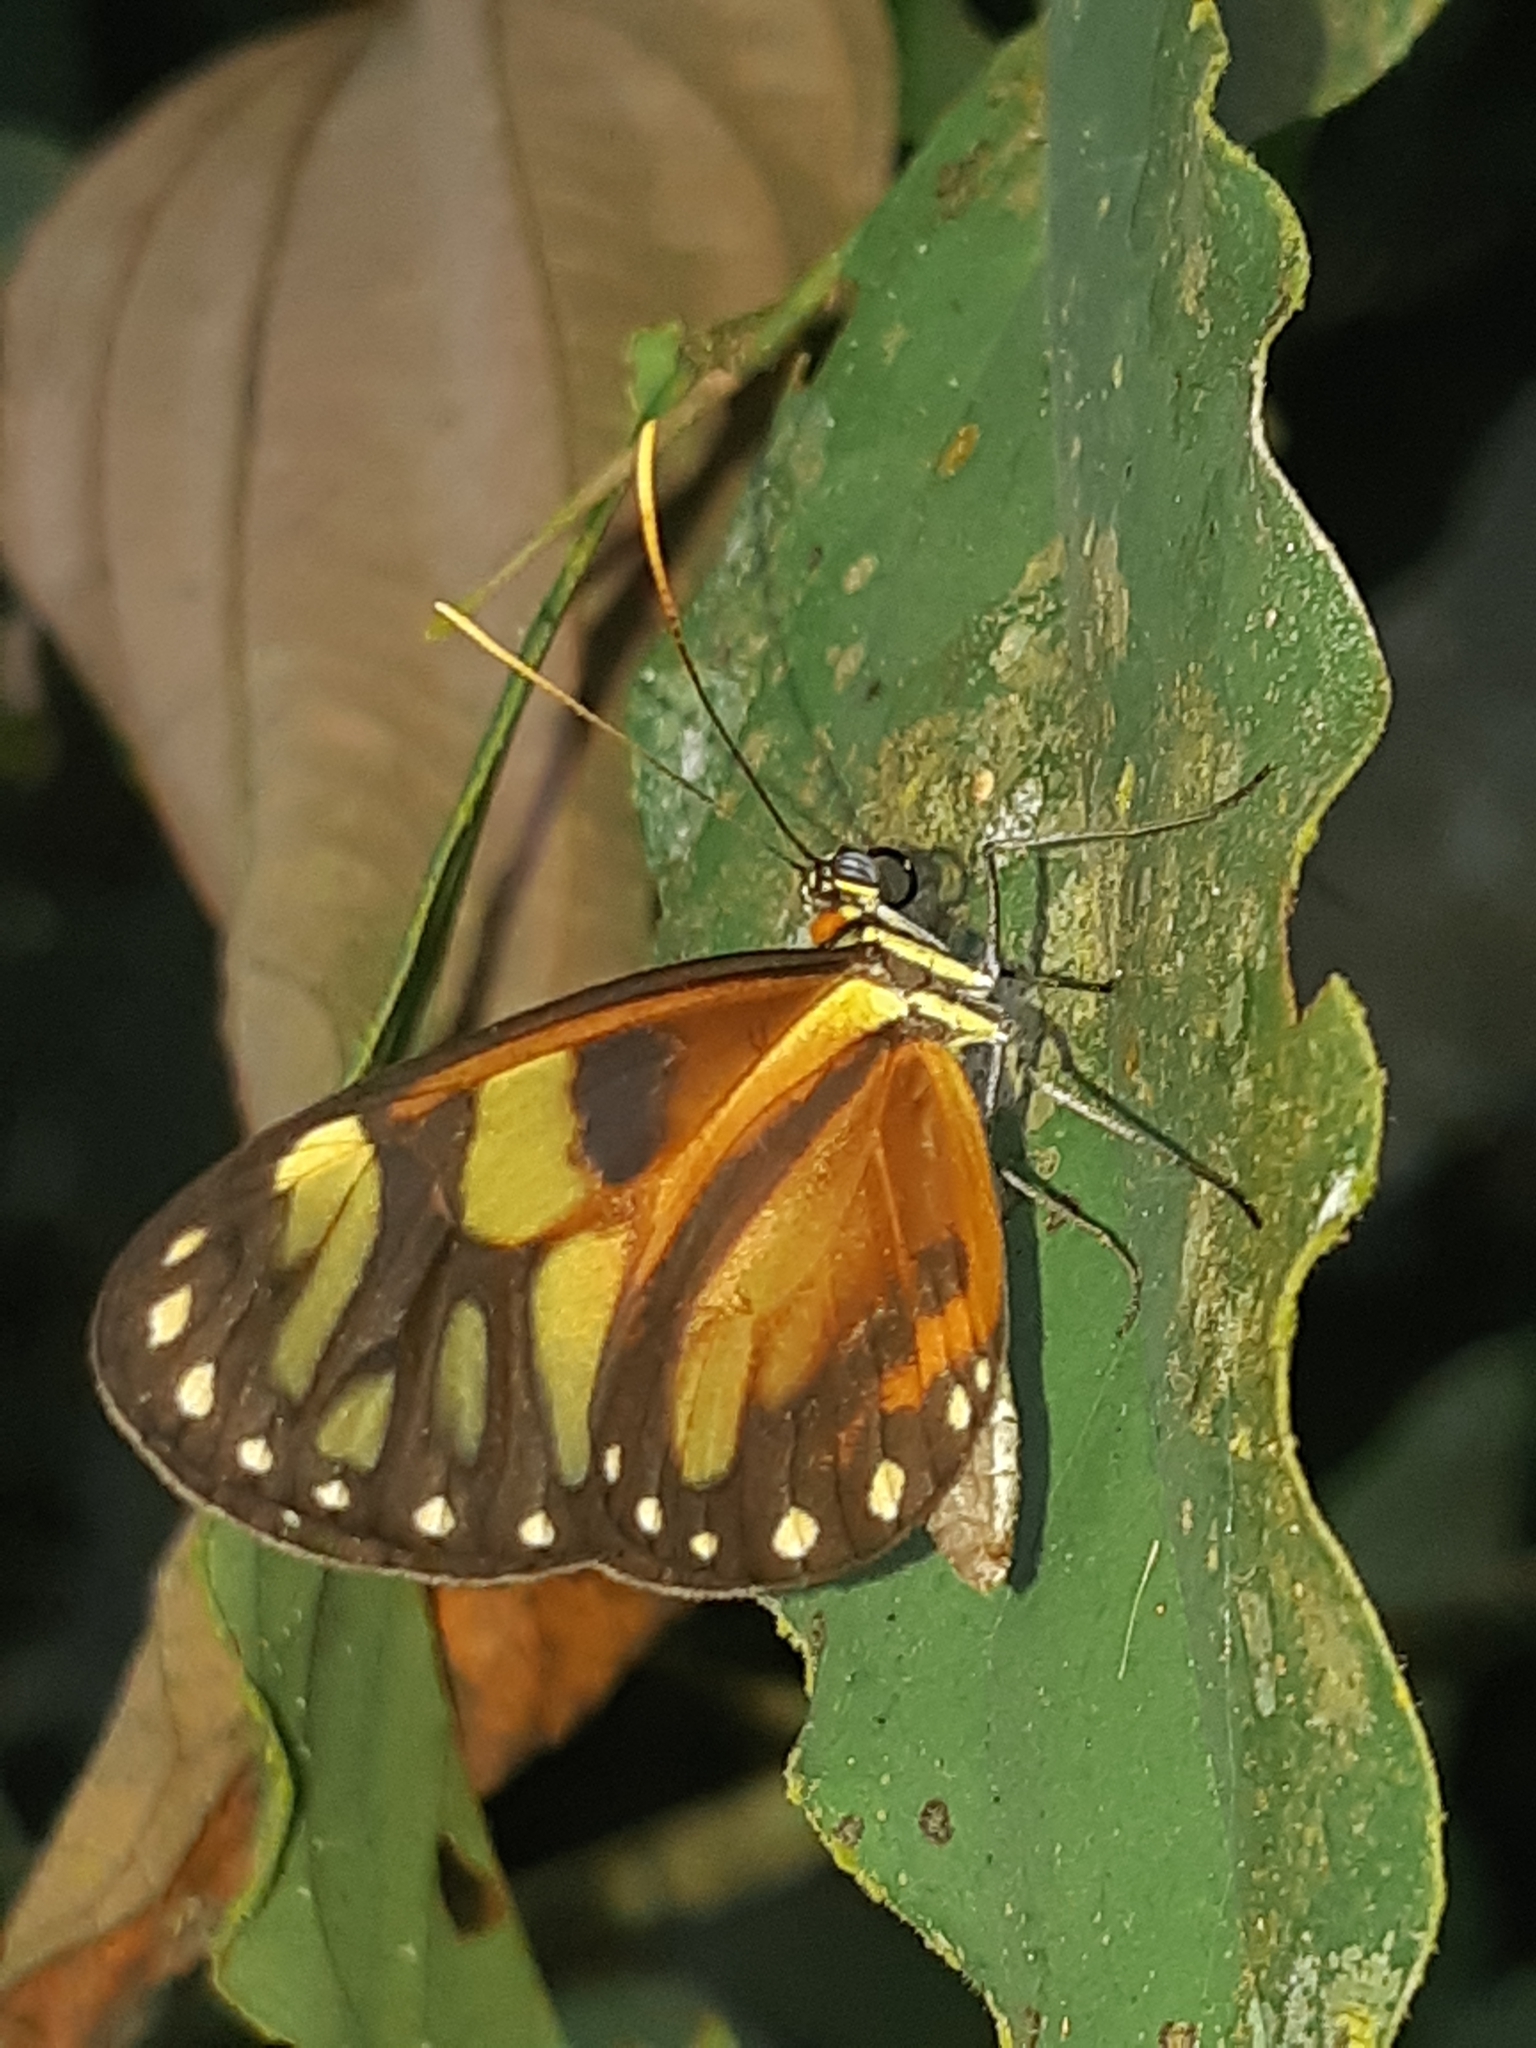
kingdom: Animalia
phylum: Arthropoda
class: Insecta
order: Lepidoptera
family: Nymphalidae
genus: Ithomia
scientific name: Ithomia iphianassa
